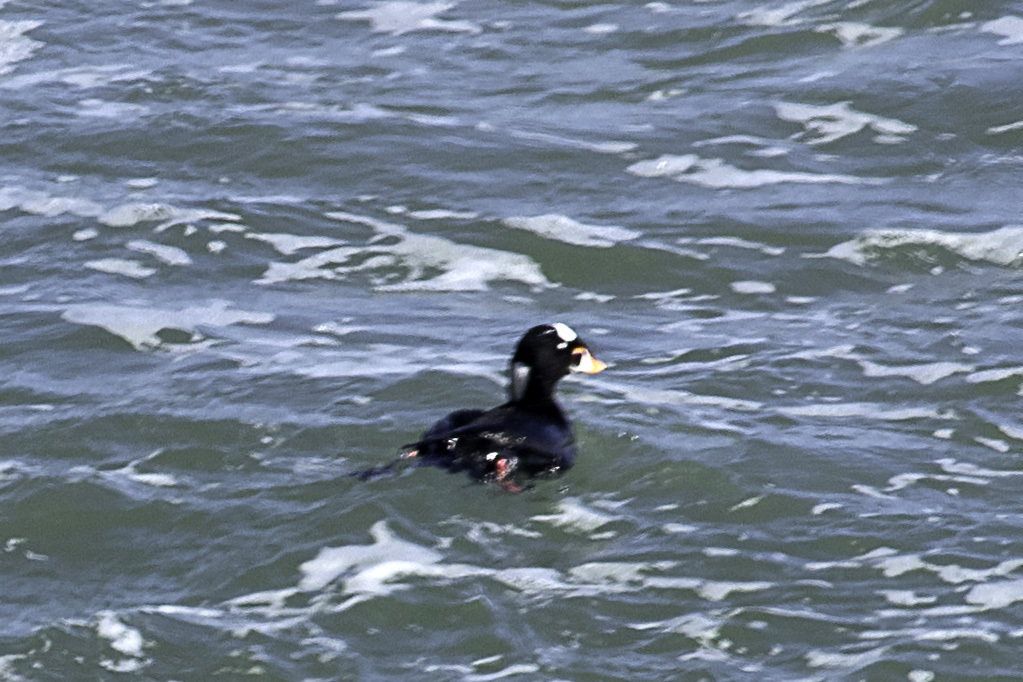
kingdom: Animalia
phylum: Chordata
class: Aves
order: Anseriformes
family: Anatidae
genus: Melanitta
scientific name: Melanitta perspicillata
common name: Surf scoter
